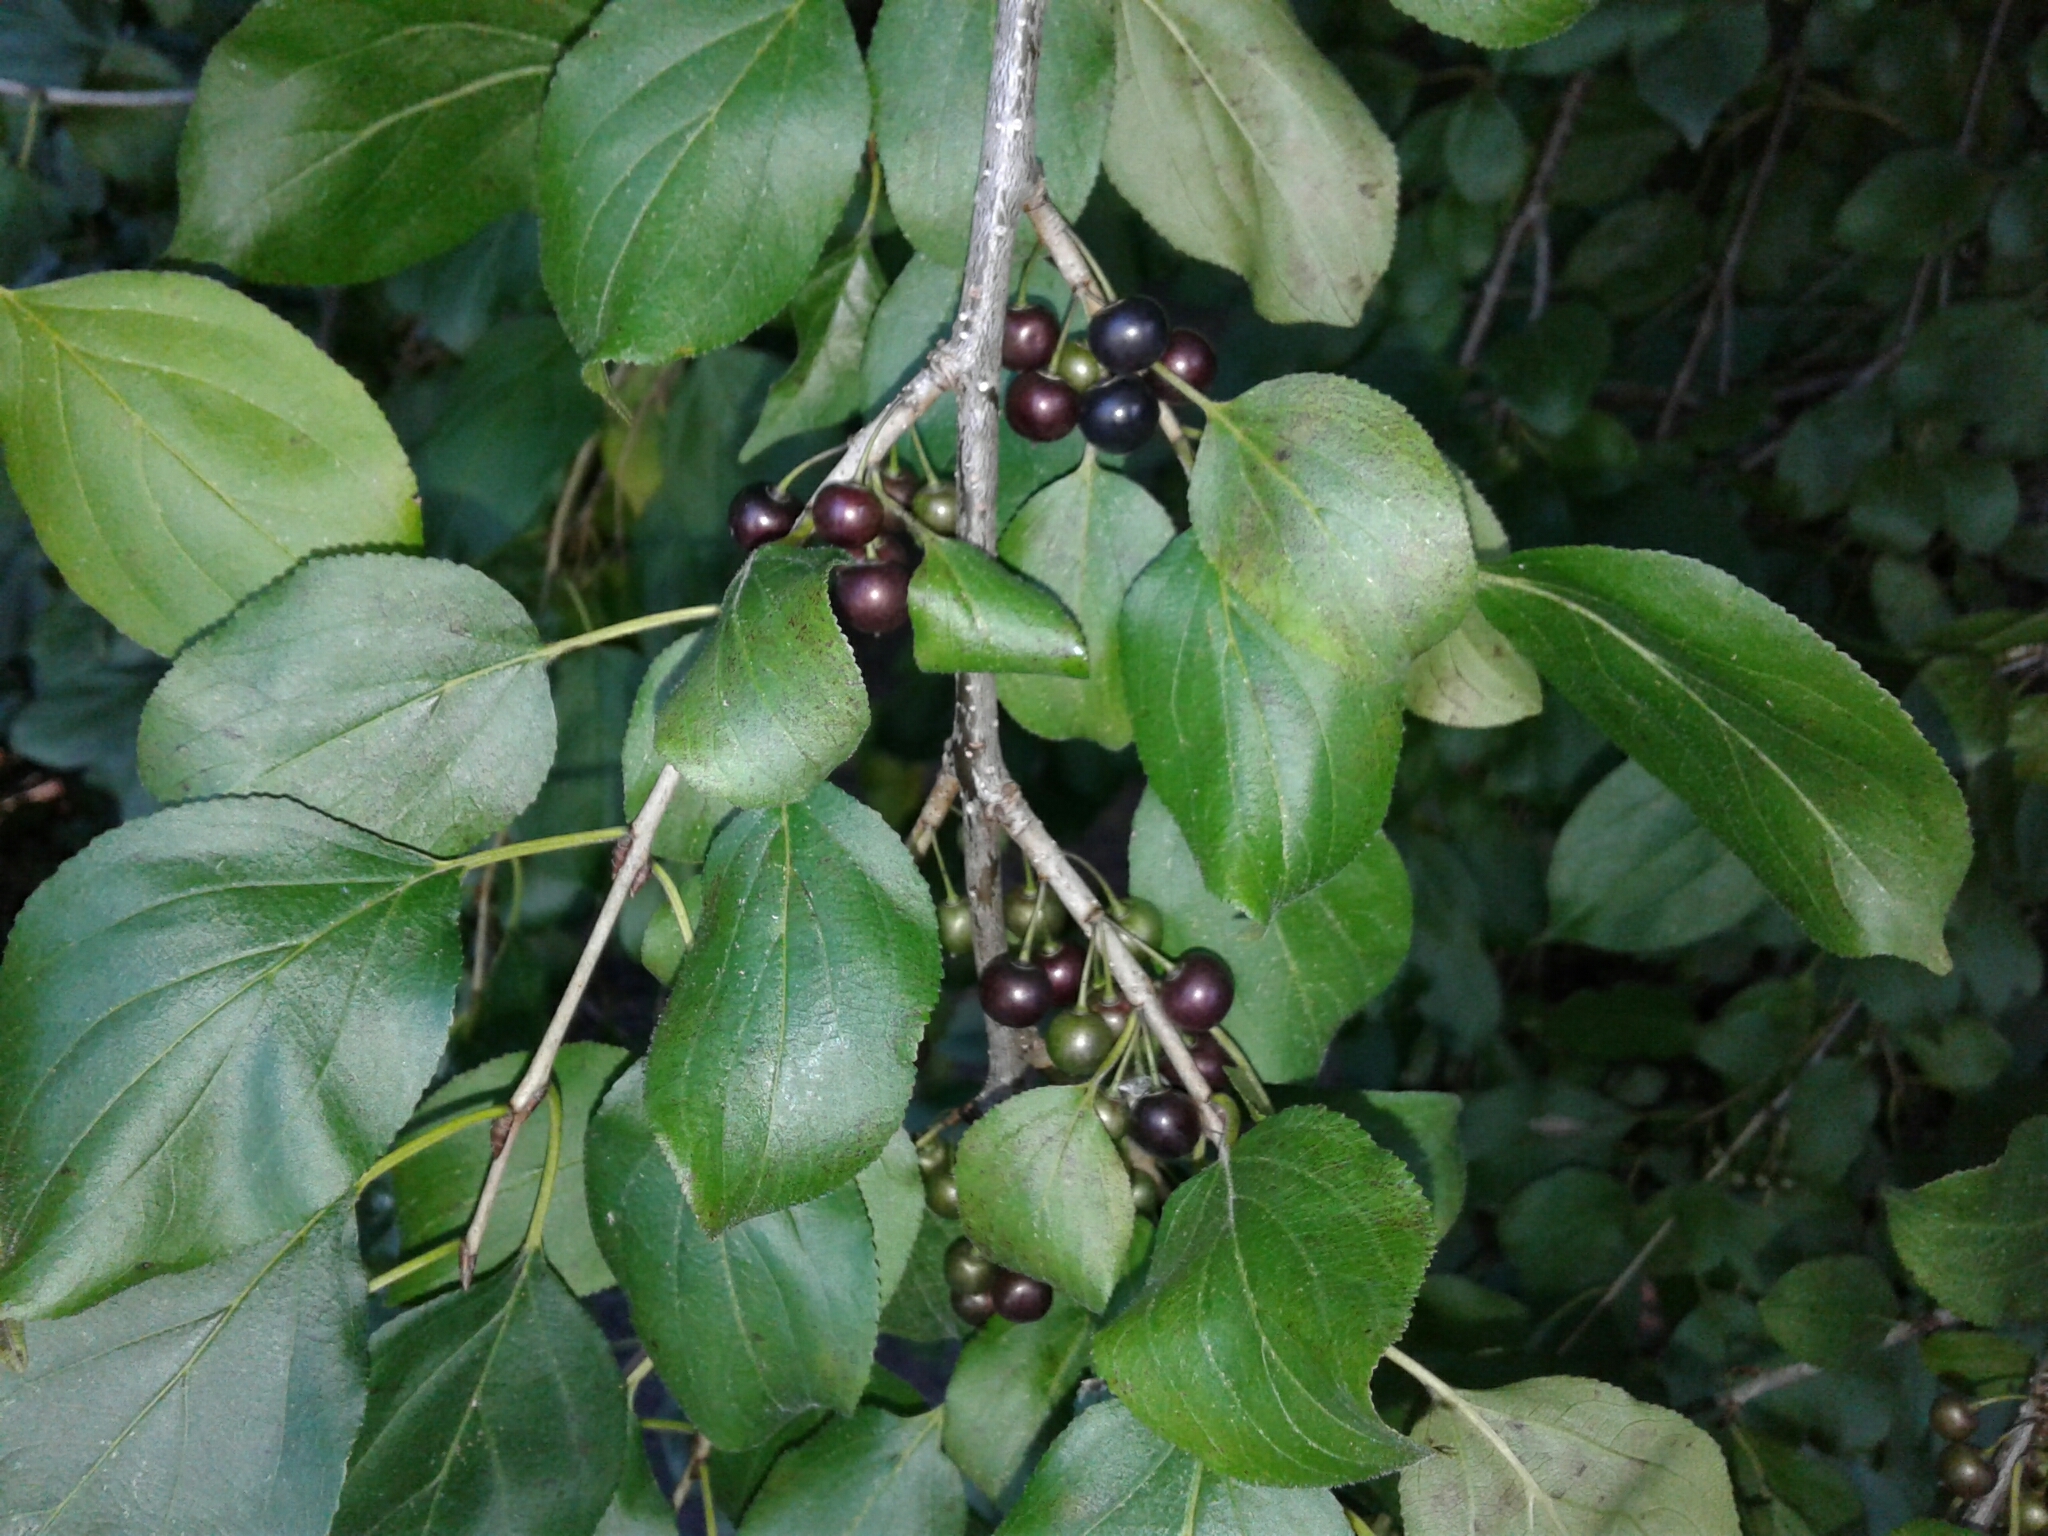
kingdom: Plantae
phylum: Tracheophyta
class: Magnoliopsida
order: Rosales
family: Rhamnaceae
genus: Rhamnus
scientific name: Rhamnus cathartica
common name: Common buckthorn
